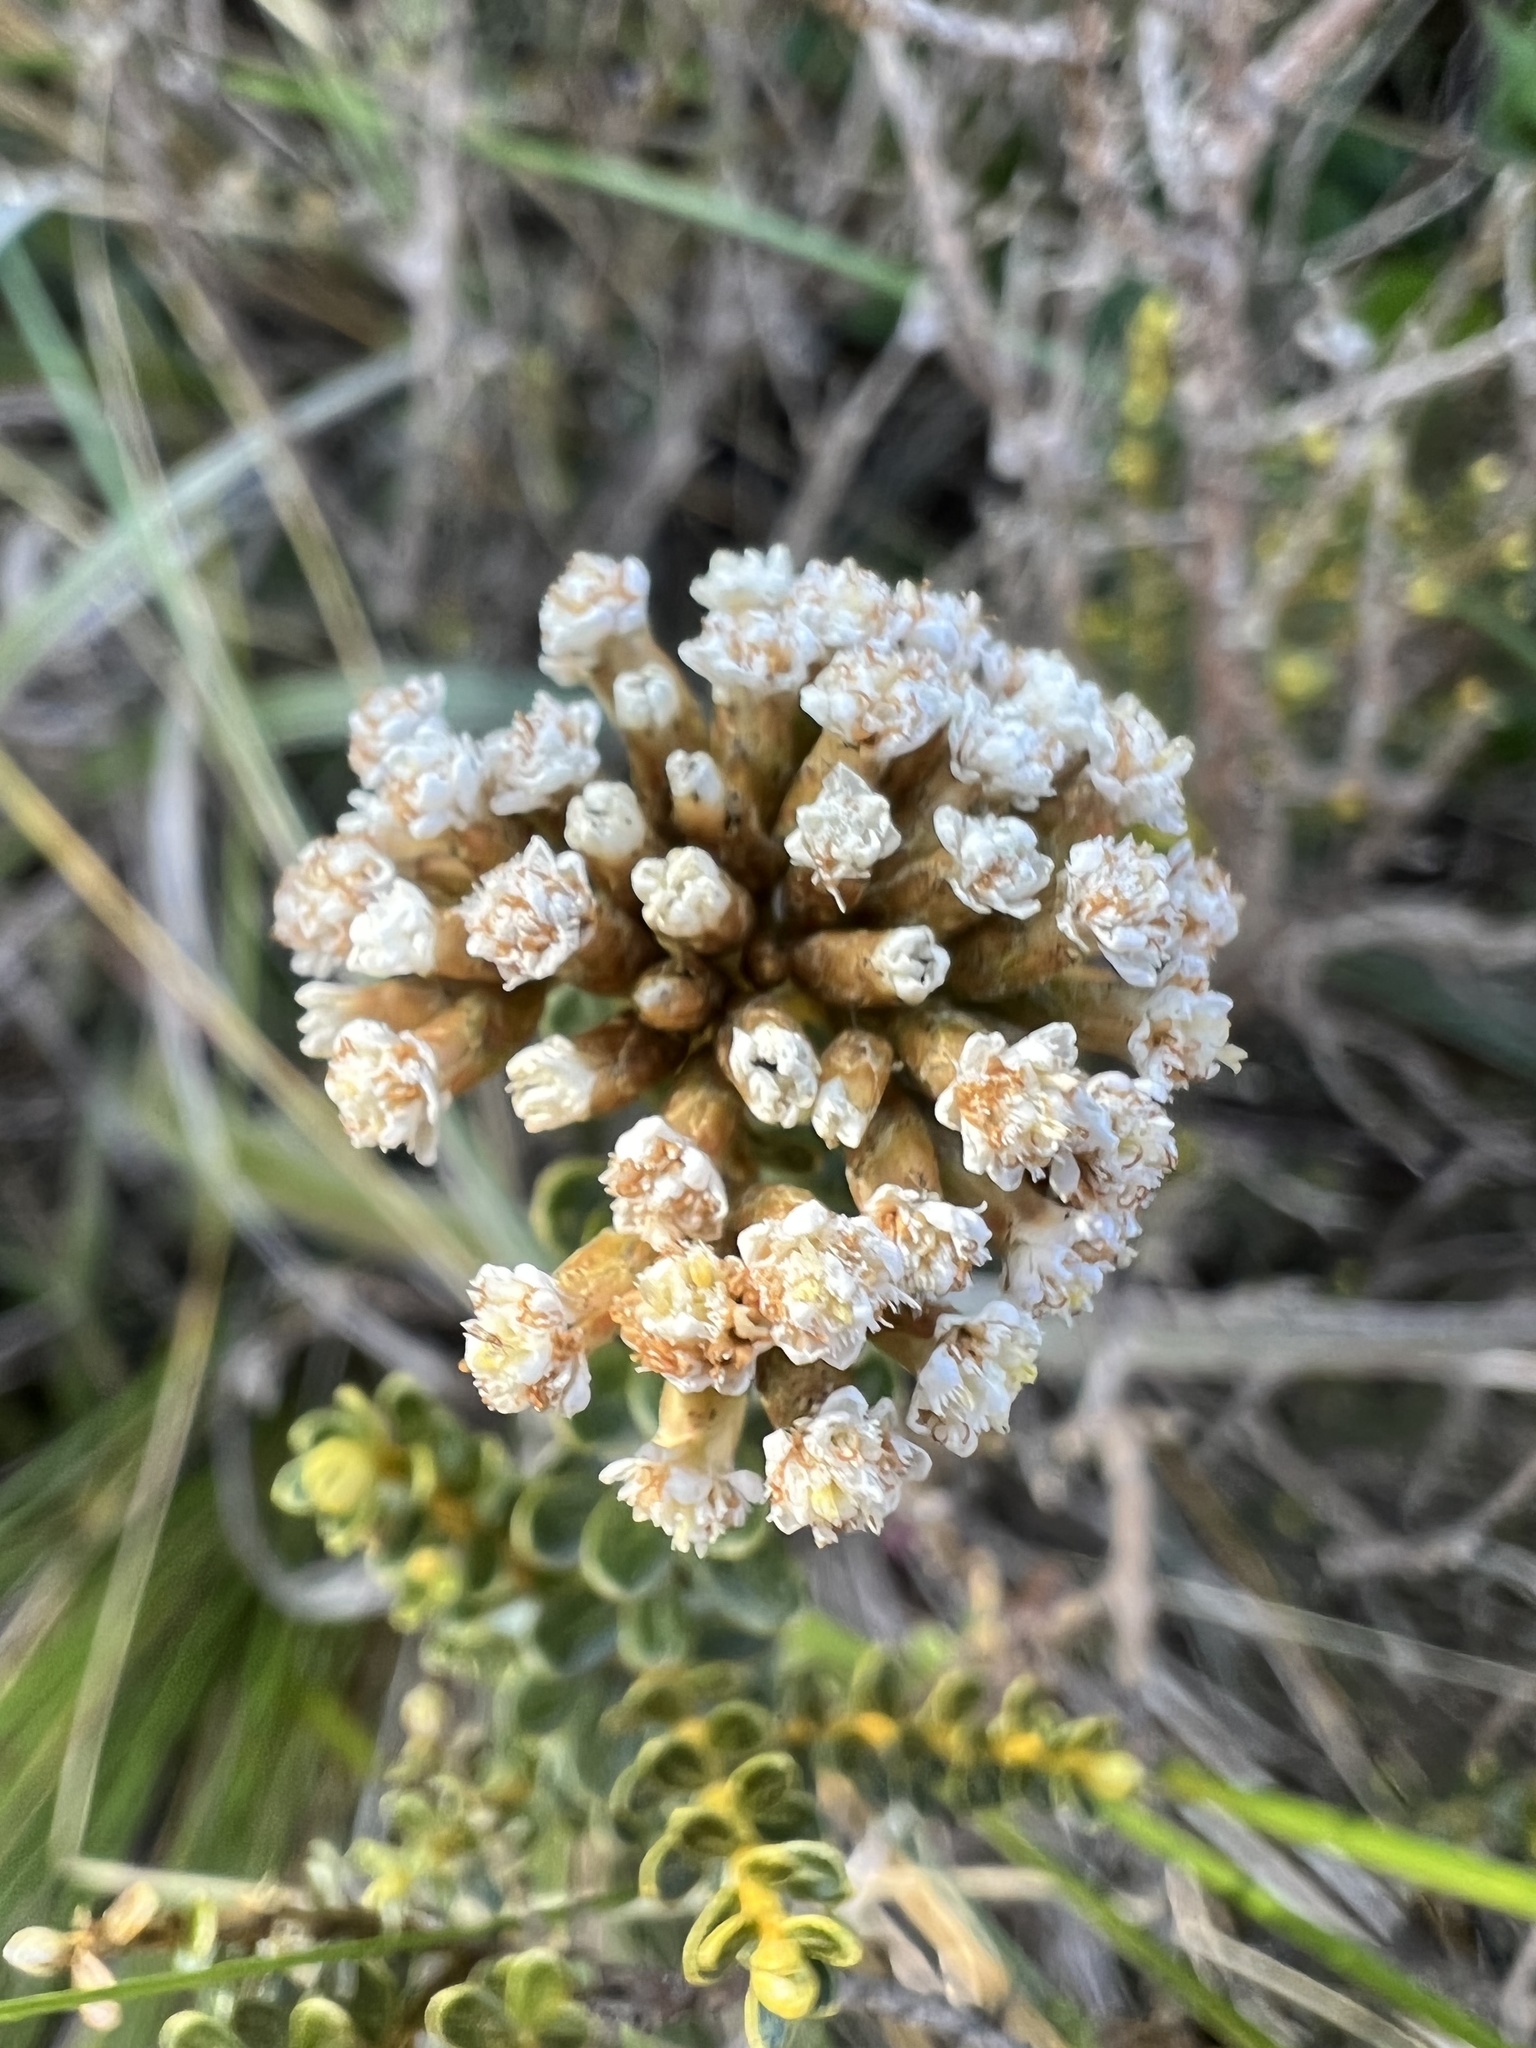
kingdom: Plantae
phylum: Tracheophyta
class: Magnoliopsida
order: Asterales
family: Asteraceae
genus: Ozothamnus
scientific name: Ozothamnus leptophyllus
